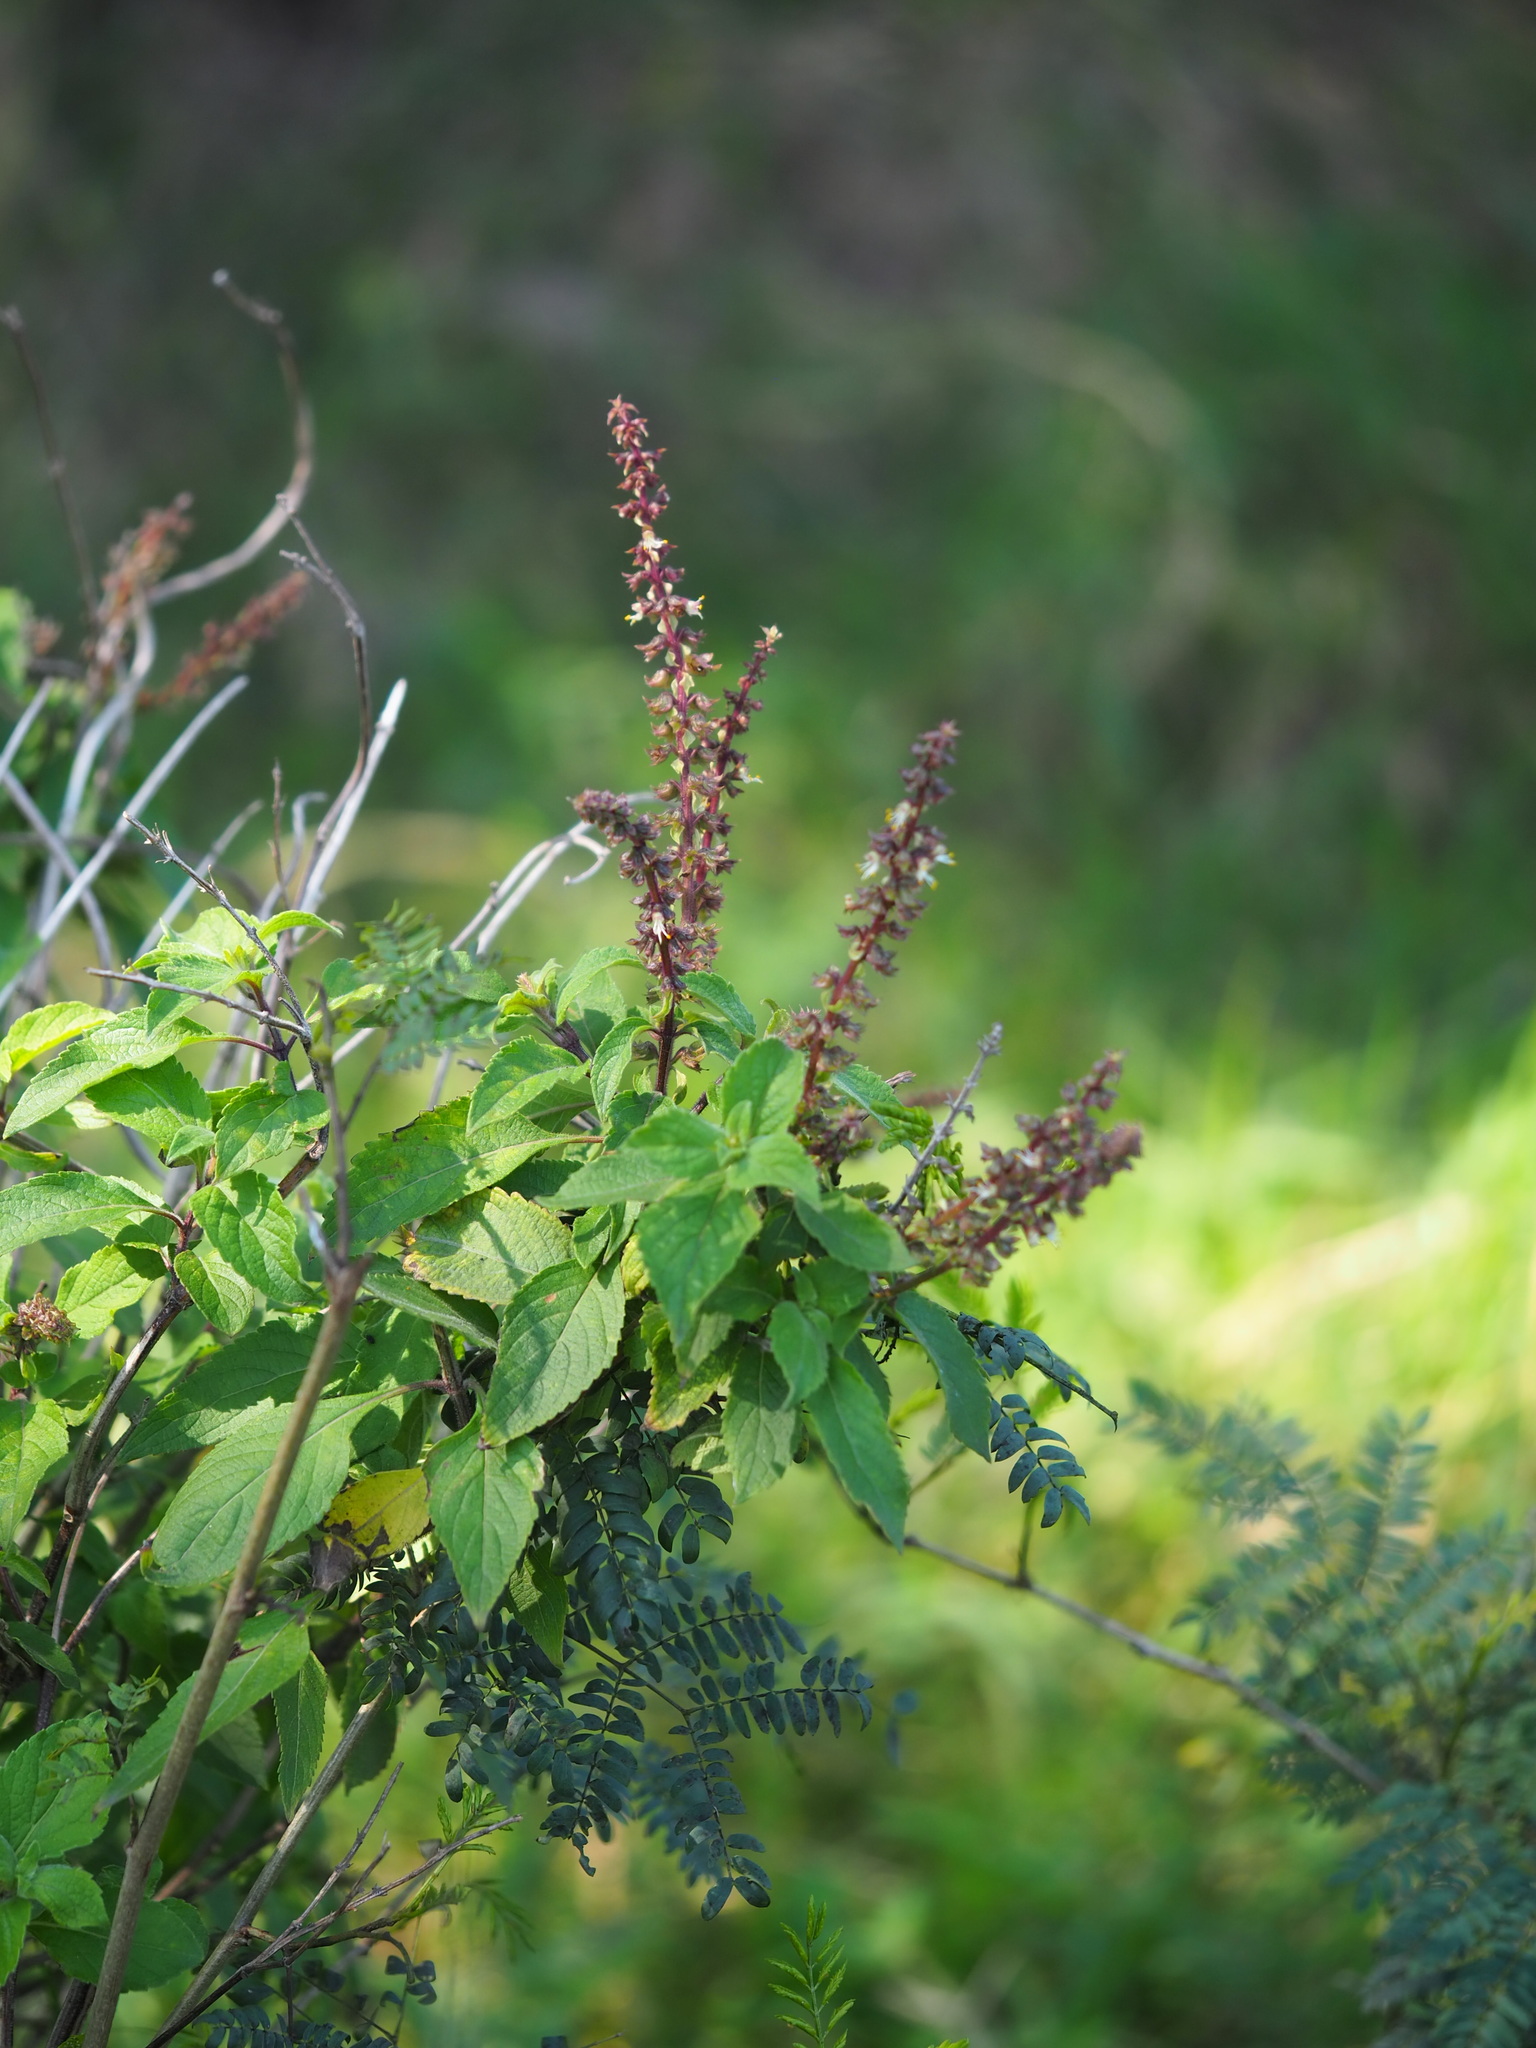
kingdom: Plantae
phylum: Tracheophyta
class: Magnoliopsida
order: Lamiales
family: Lamiaceae
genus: Ocimum
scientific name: Ocimum gratissimum
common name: African basil
